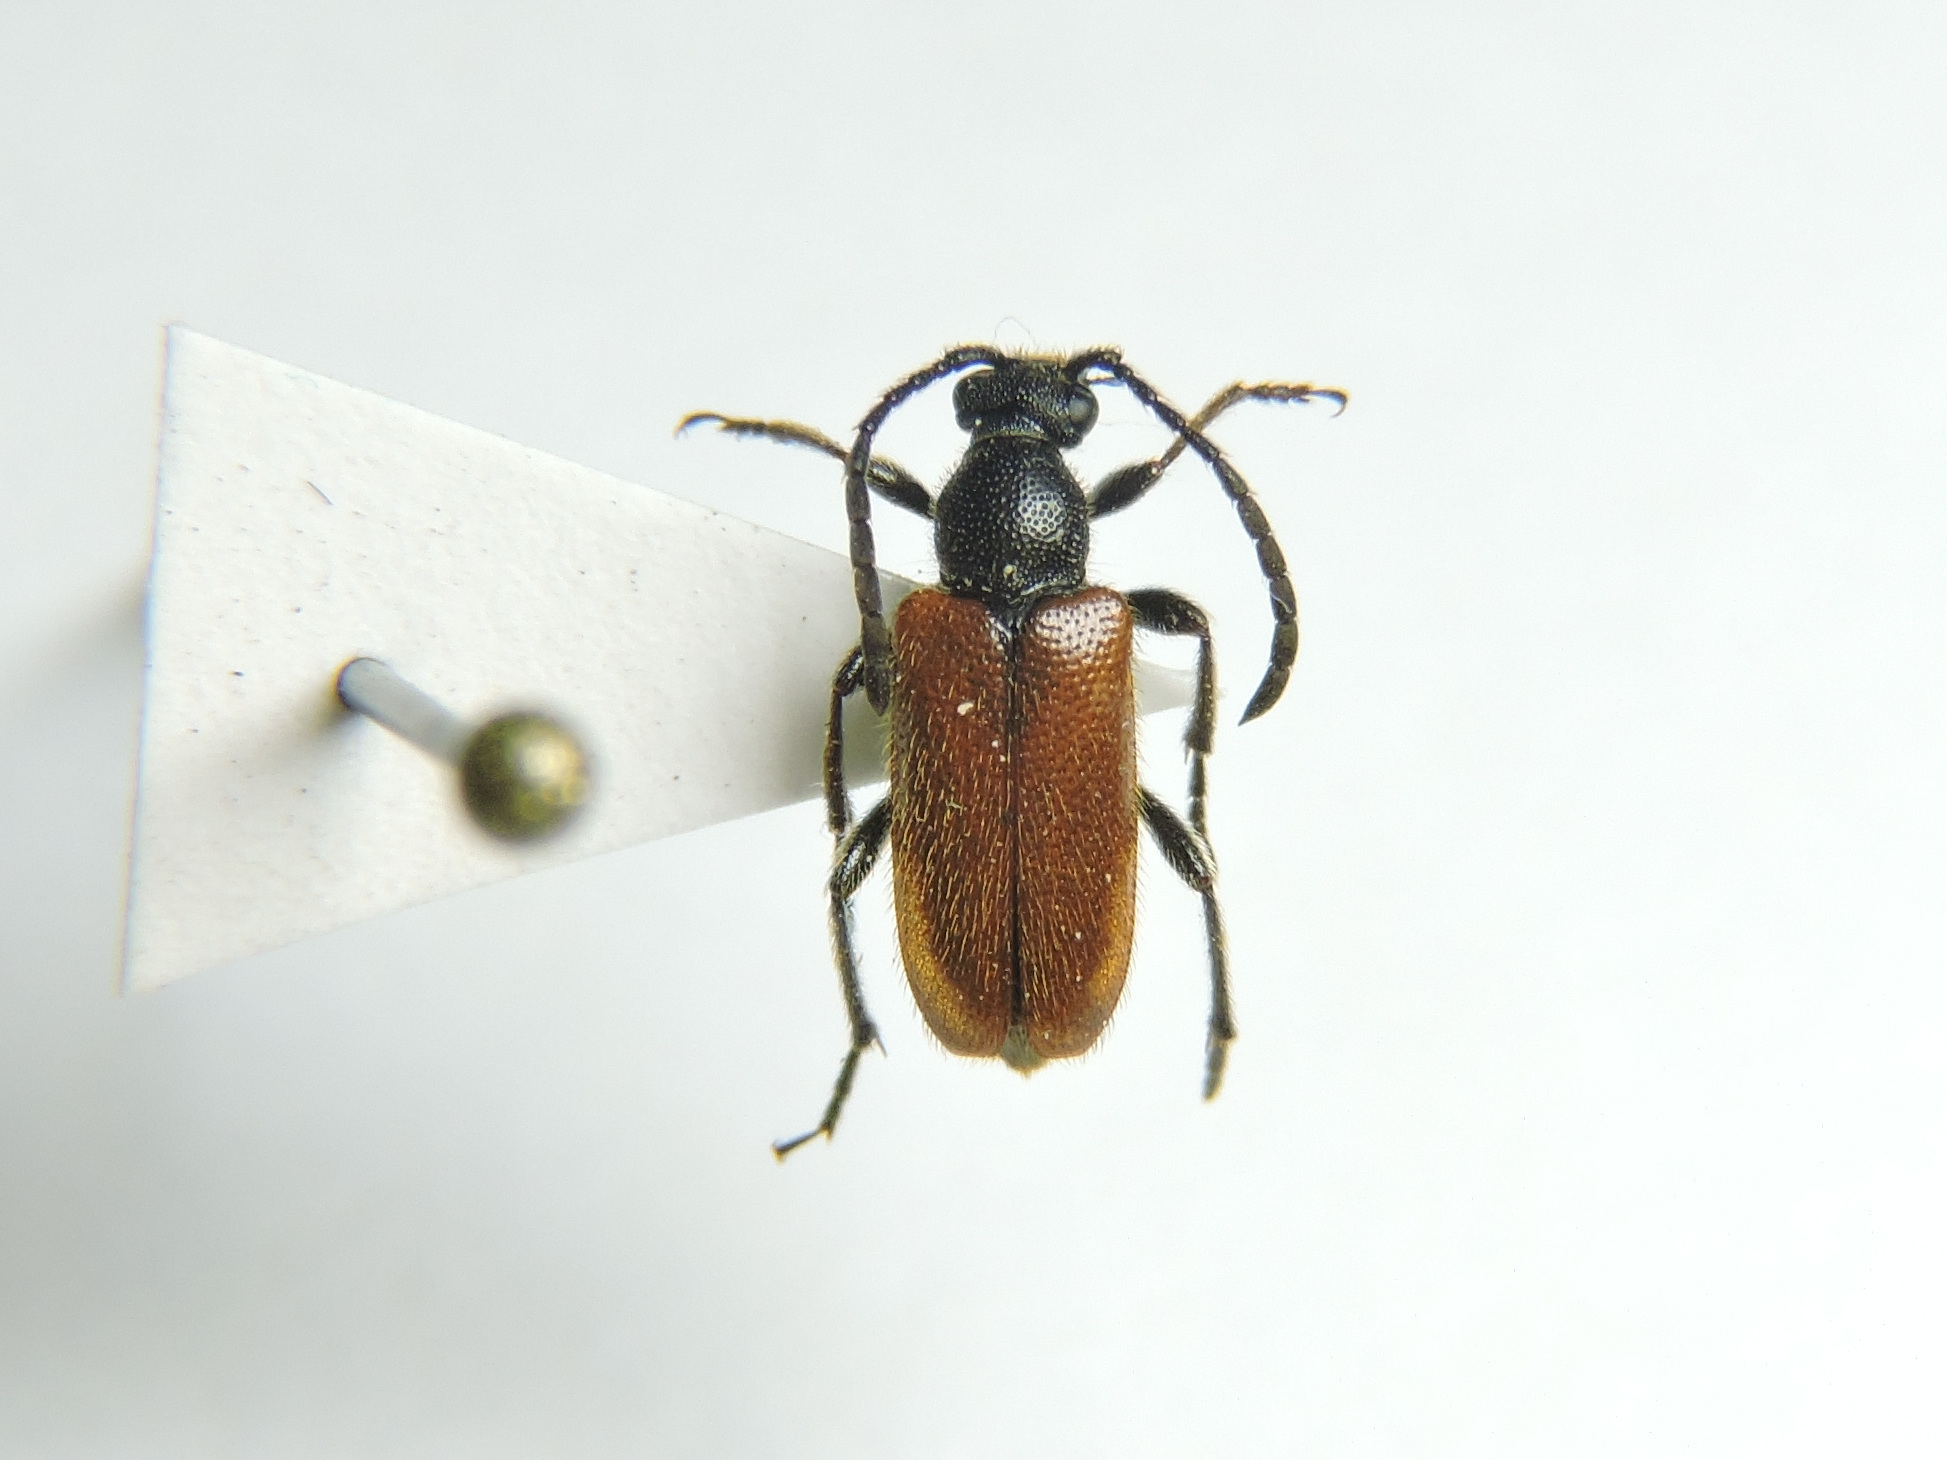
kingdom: Animalia
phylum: Arthropoda
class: Insecta
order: Coleoptera
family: Cerambycidae
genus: Pseudovadonia
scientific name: Pseudovadonia livida
